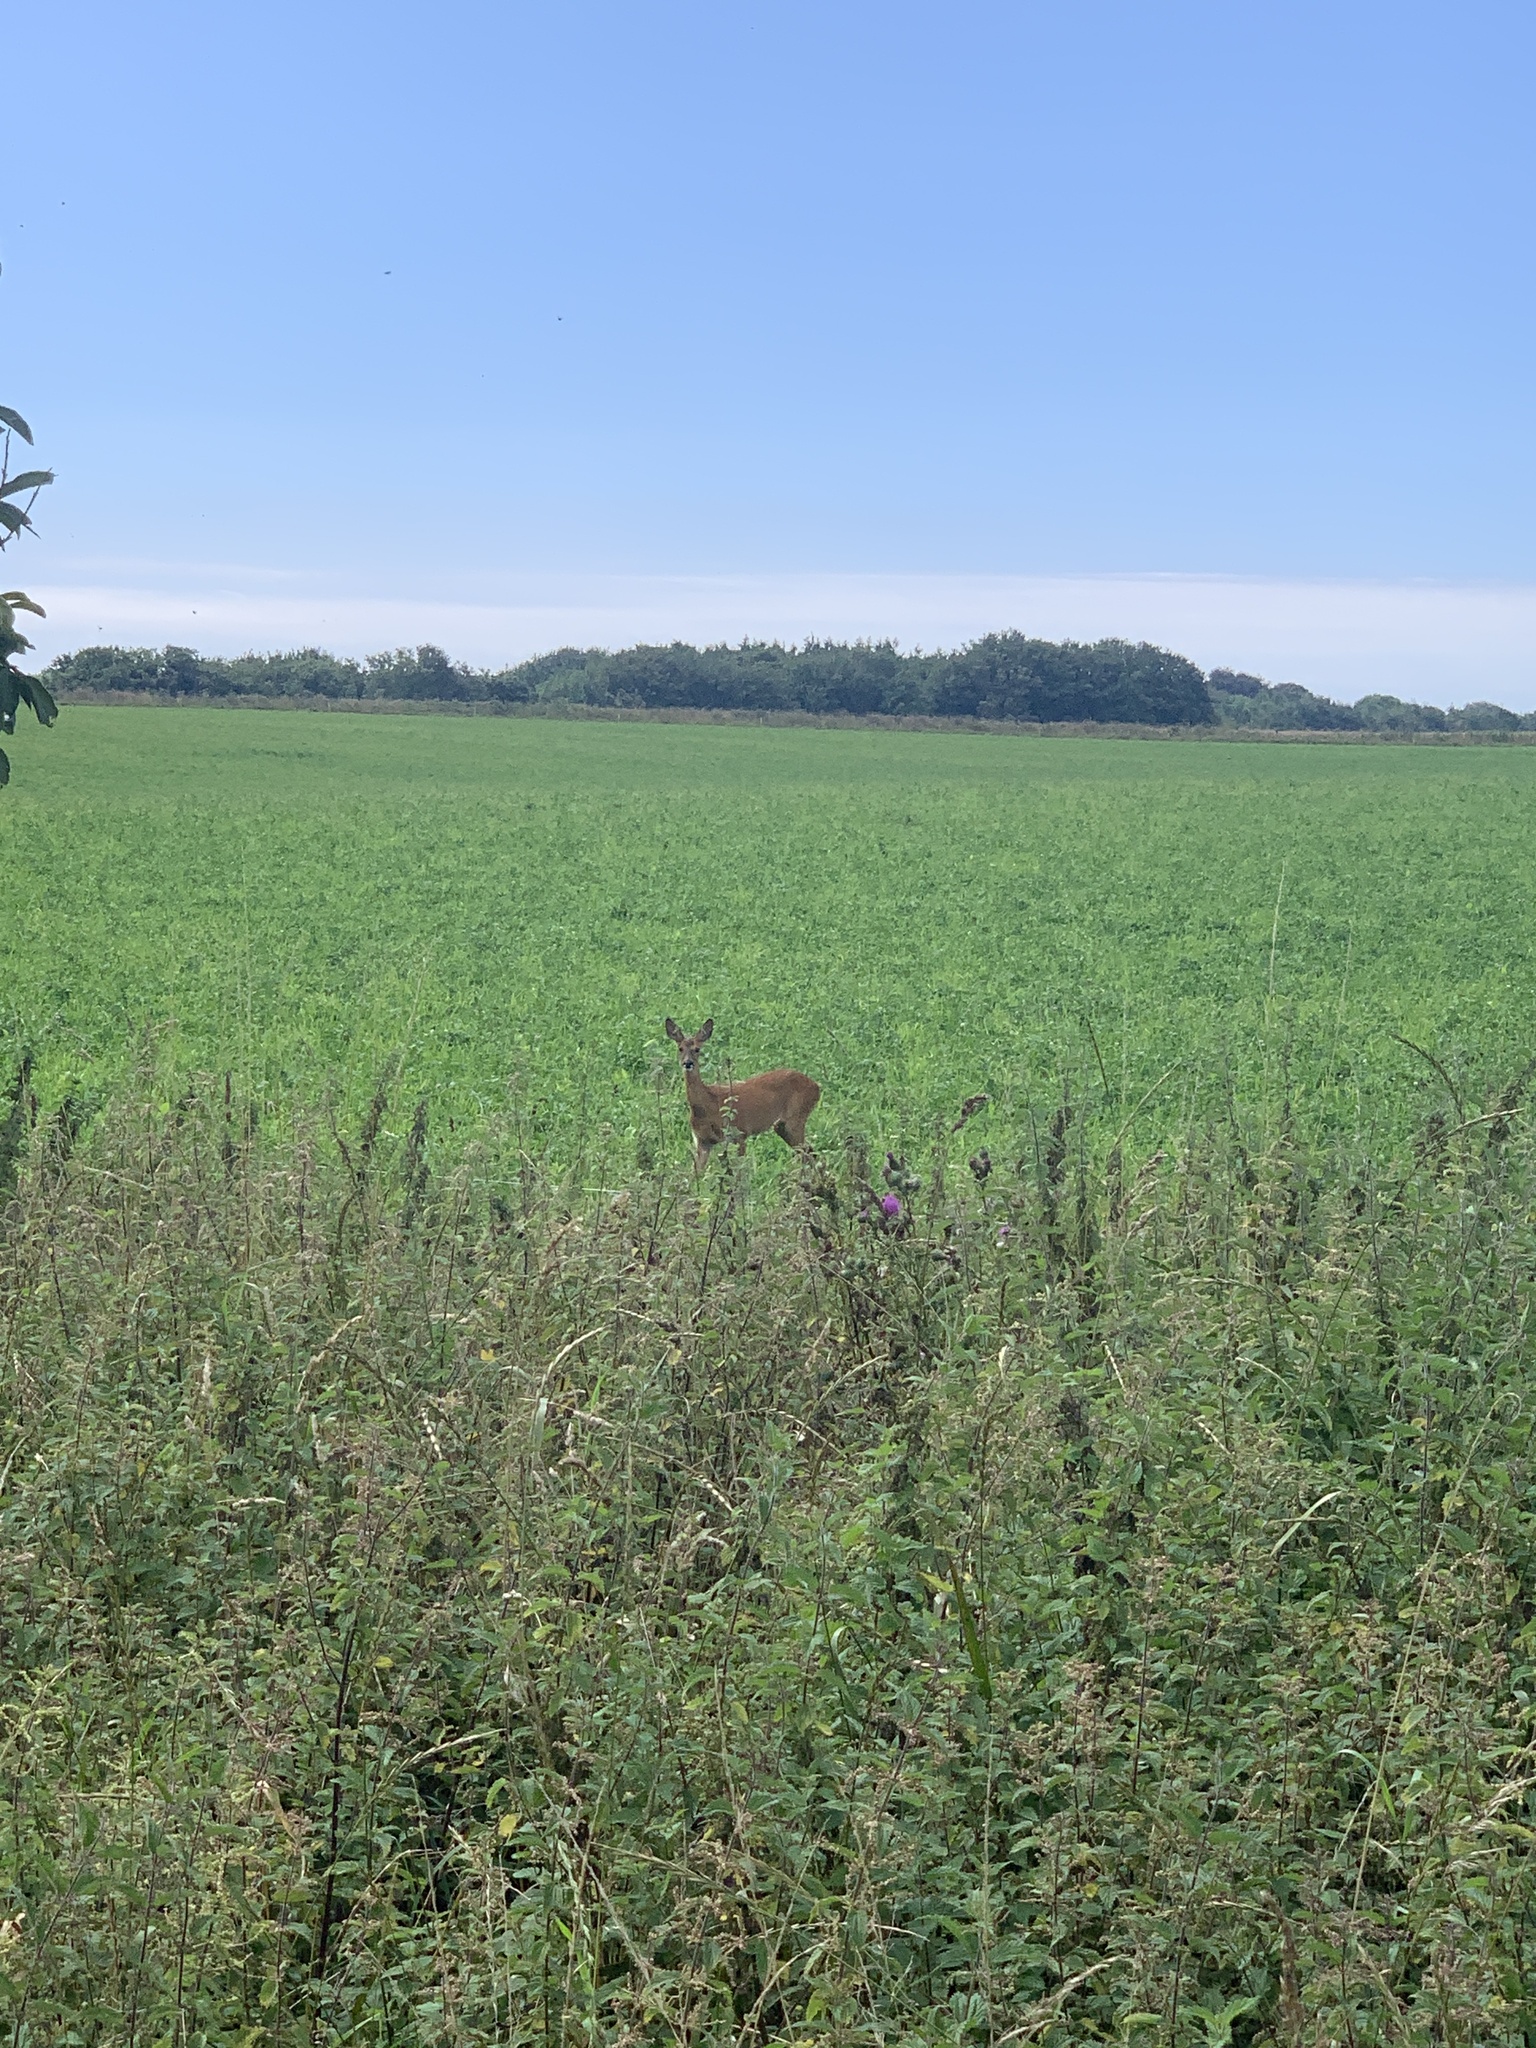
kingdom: Animalia
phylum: Chordata
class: Mammalia
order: Artiodactyla
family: Cervidae
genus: Capreolus
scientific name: Capreolus capreolus
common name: Western roe deer
